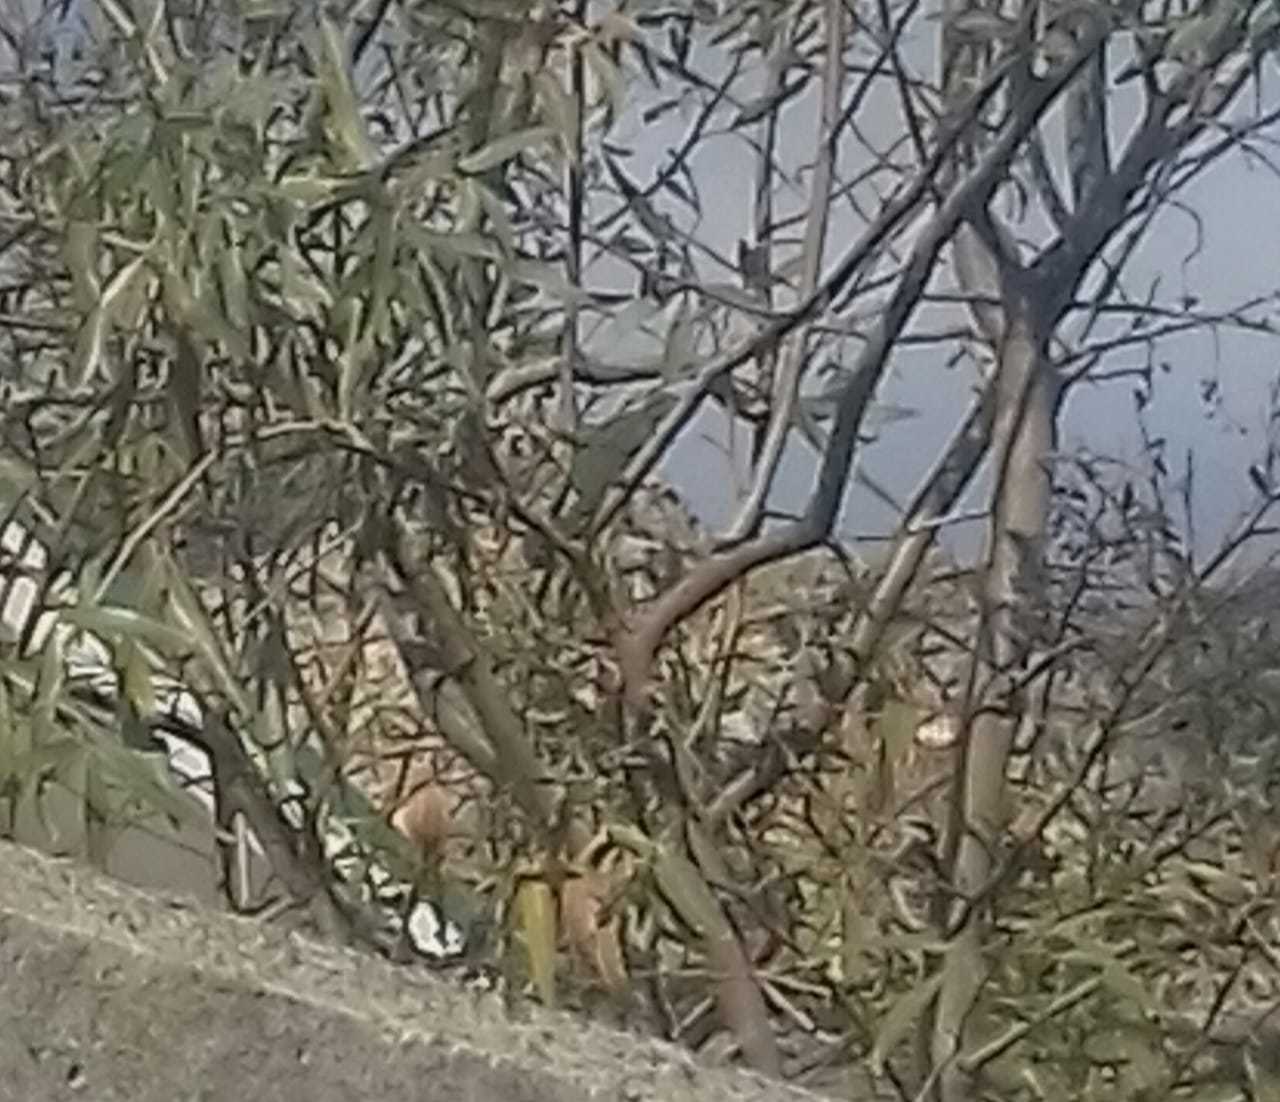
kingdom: Animalia
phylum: Chordata
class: Squamata
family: Chamaeleonidae
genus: Bradypodion
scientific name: Bradypodion pumilum
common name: Cape dwarf chameleon
